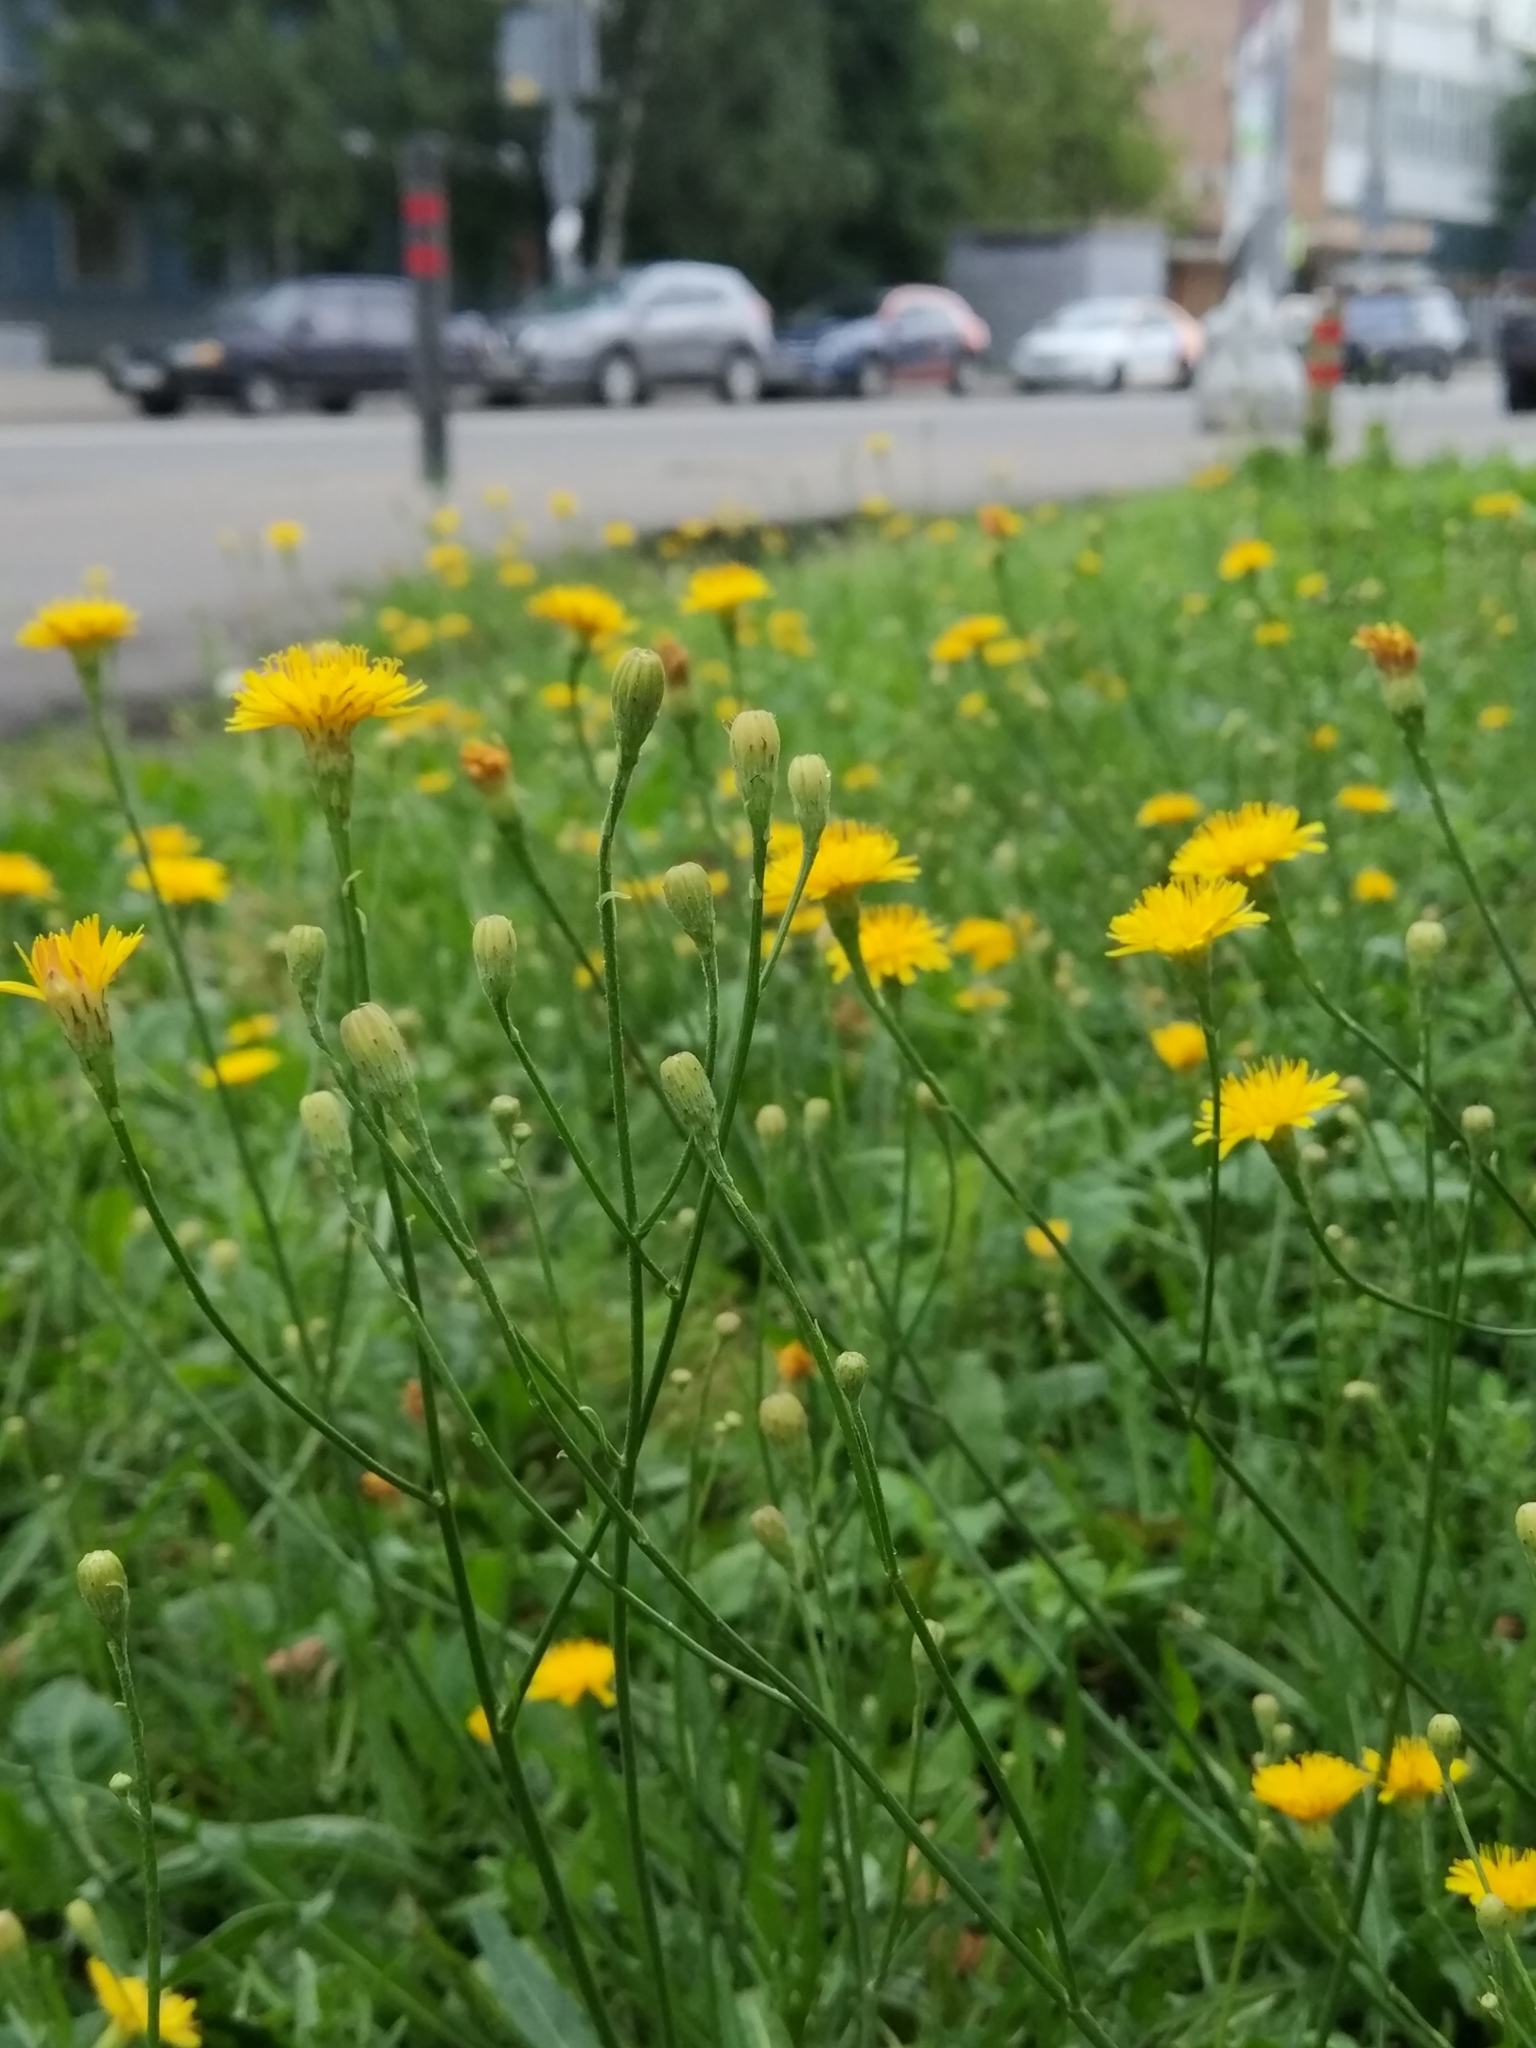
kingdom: Plantae
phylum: Tracheophyta
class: Magnoliopsida
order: Asterales
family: Asteraceae
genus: Scorzoneroides
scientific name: Scorzoneroides autumnalis
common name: Autumn hawkbit
